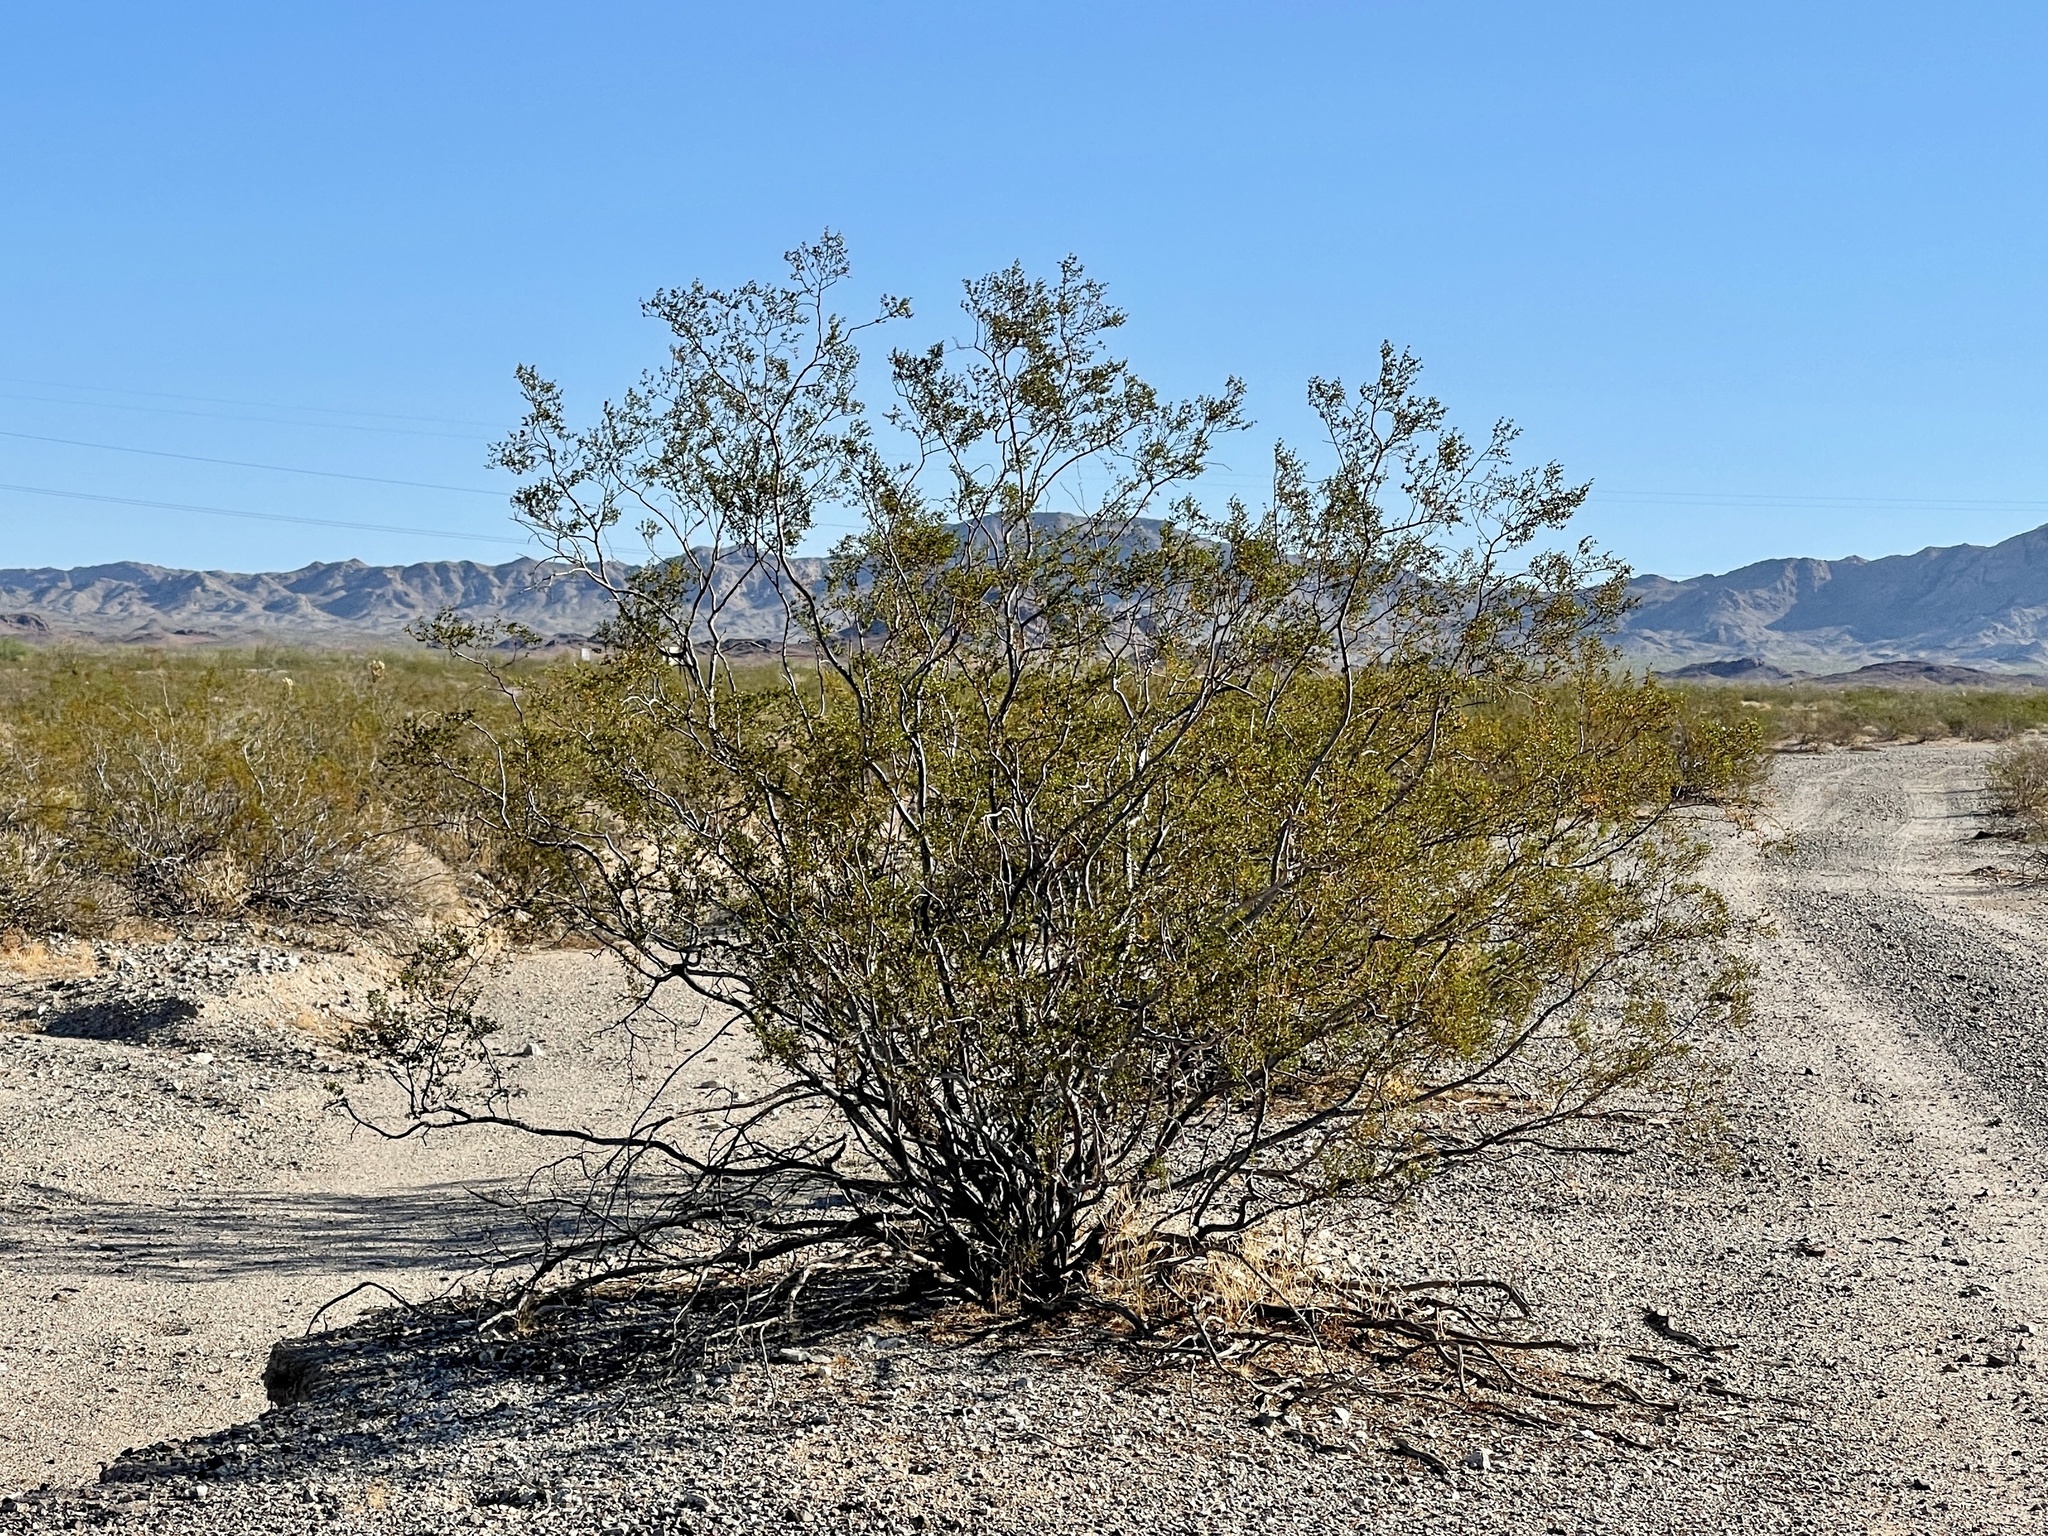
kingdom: Plantae
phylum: Tracheophyta
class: Magnoliopsida
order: Zygophyllales
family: Zygophyllaceae
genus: Larrea
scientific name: Larrea tridentata
